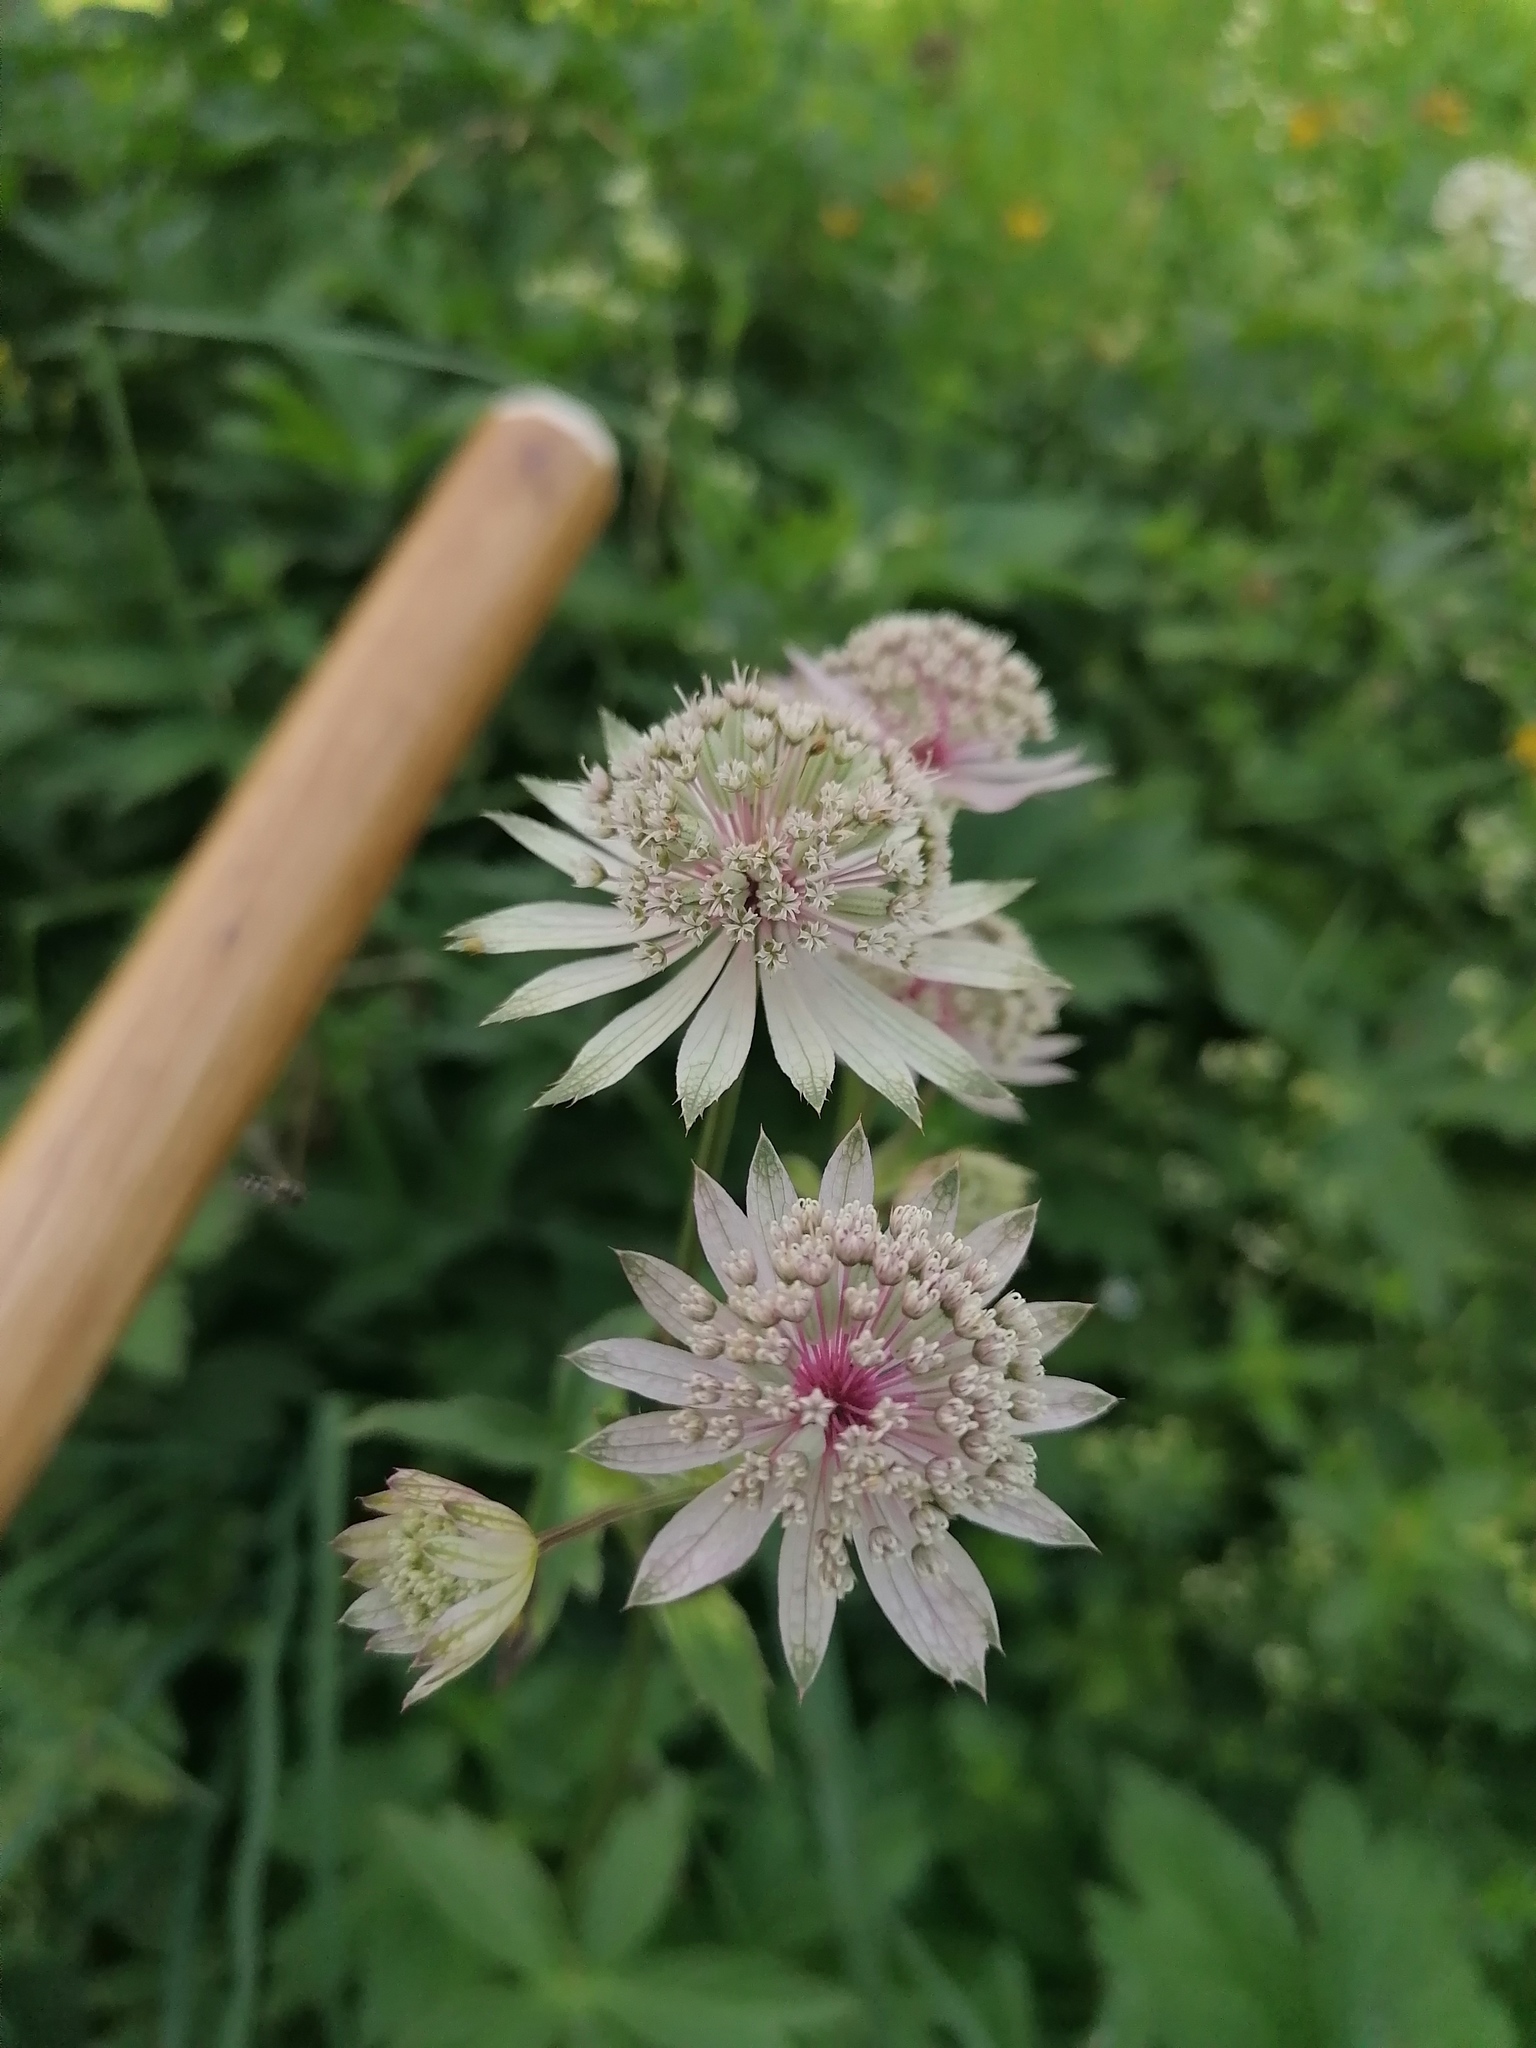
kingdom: Plantae
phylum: Tracheophyta
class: Magnoliopsida
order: Apiales
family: Apiaceae
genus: Astrantia
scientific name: Astrantia major
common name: Greater masterwort
